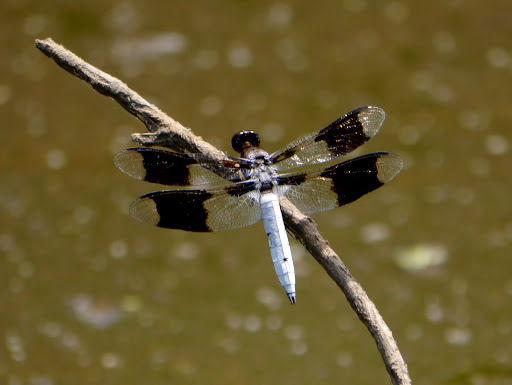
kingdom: Animalia
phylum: Arthropoda
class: Insecta
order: Odonata
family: Libellulidae
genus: Plathemis
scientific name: Plathemis lydia
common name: Common whitetail
